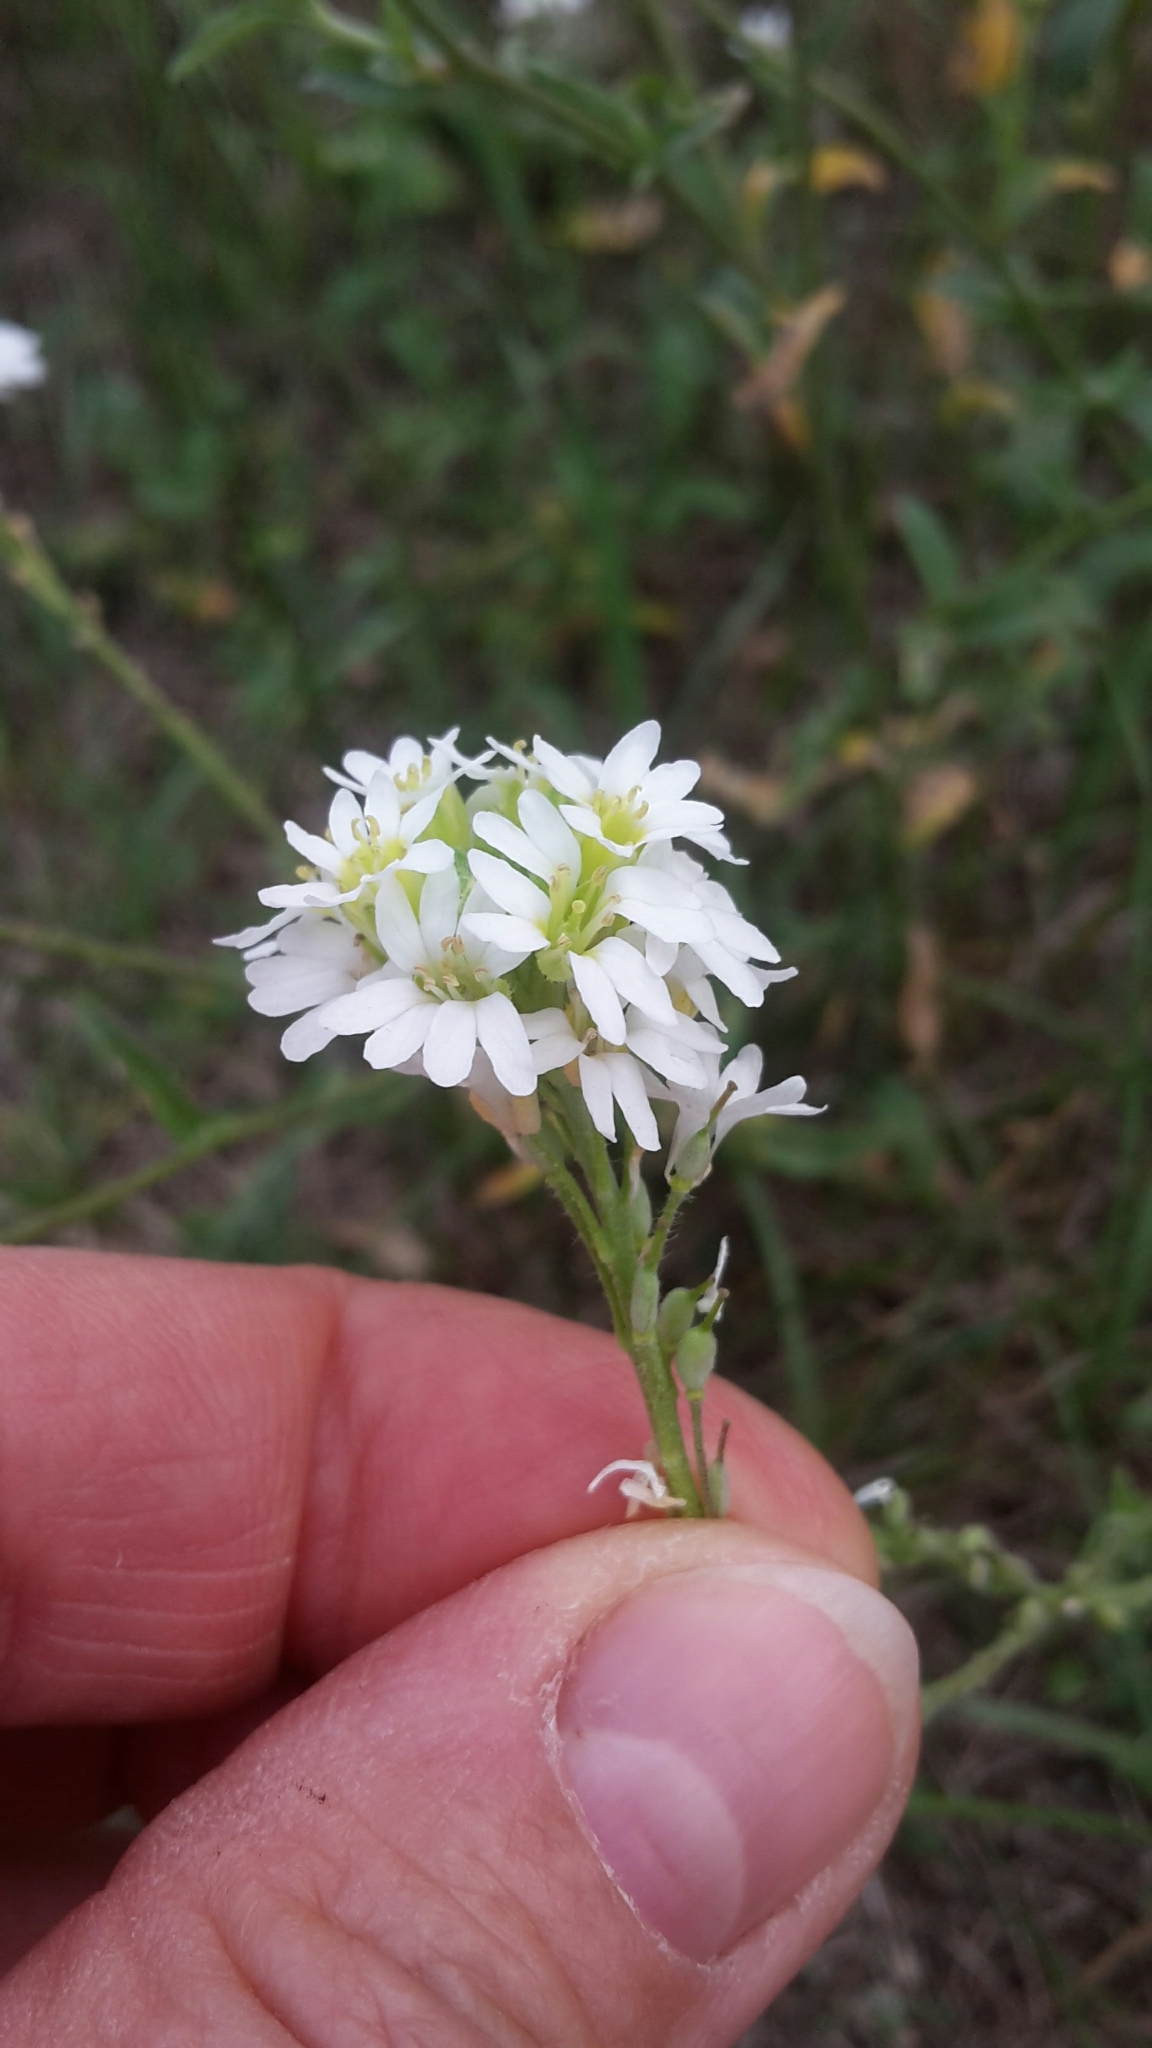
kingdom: Plantae
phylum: Tracheophyta
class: Magnoliopsida
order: Brassicales
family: Brassicaceae
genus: Berteroa
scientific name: Berteroa incana
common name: Hoary alison
